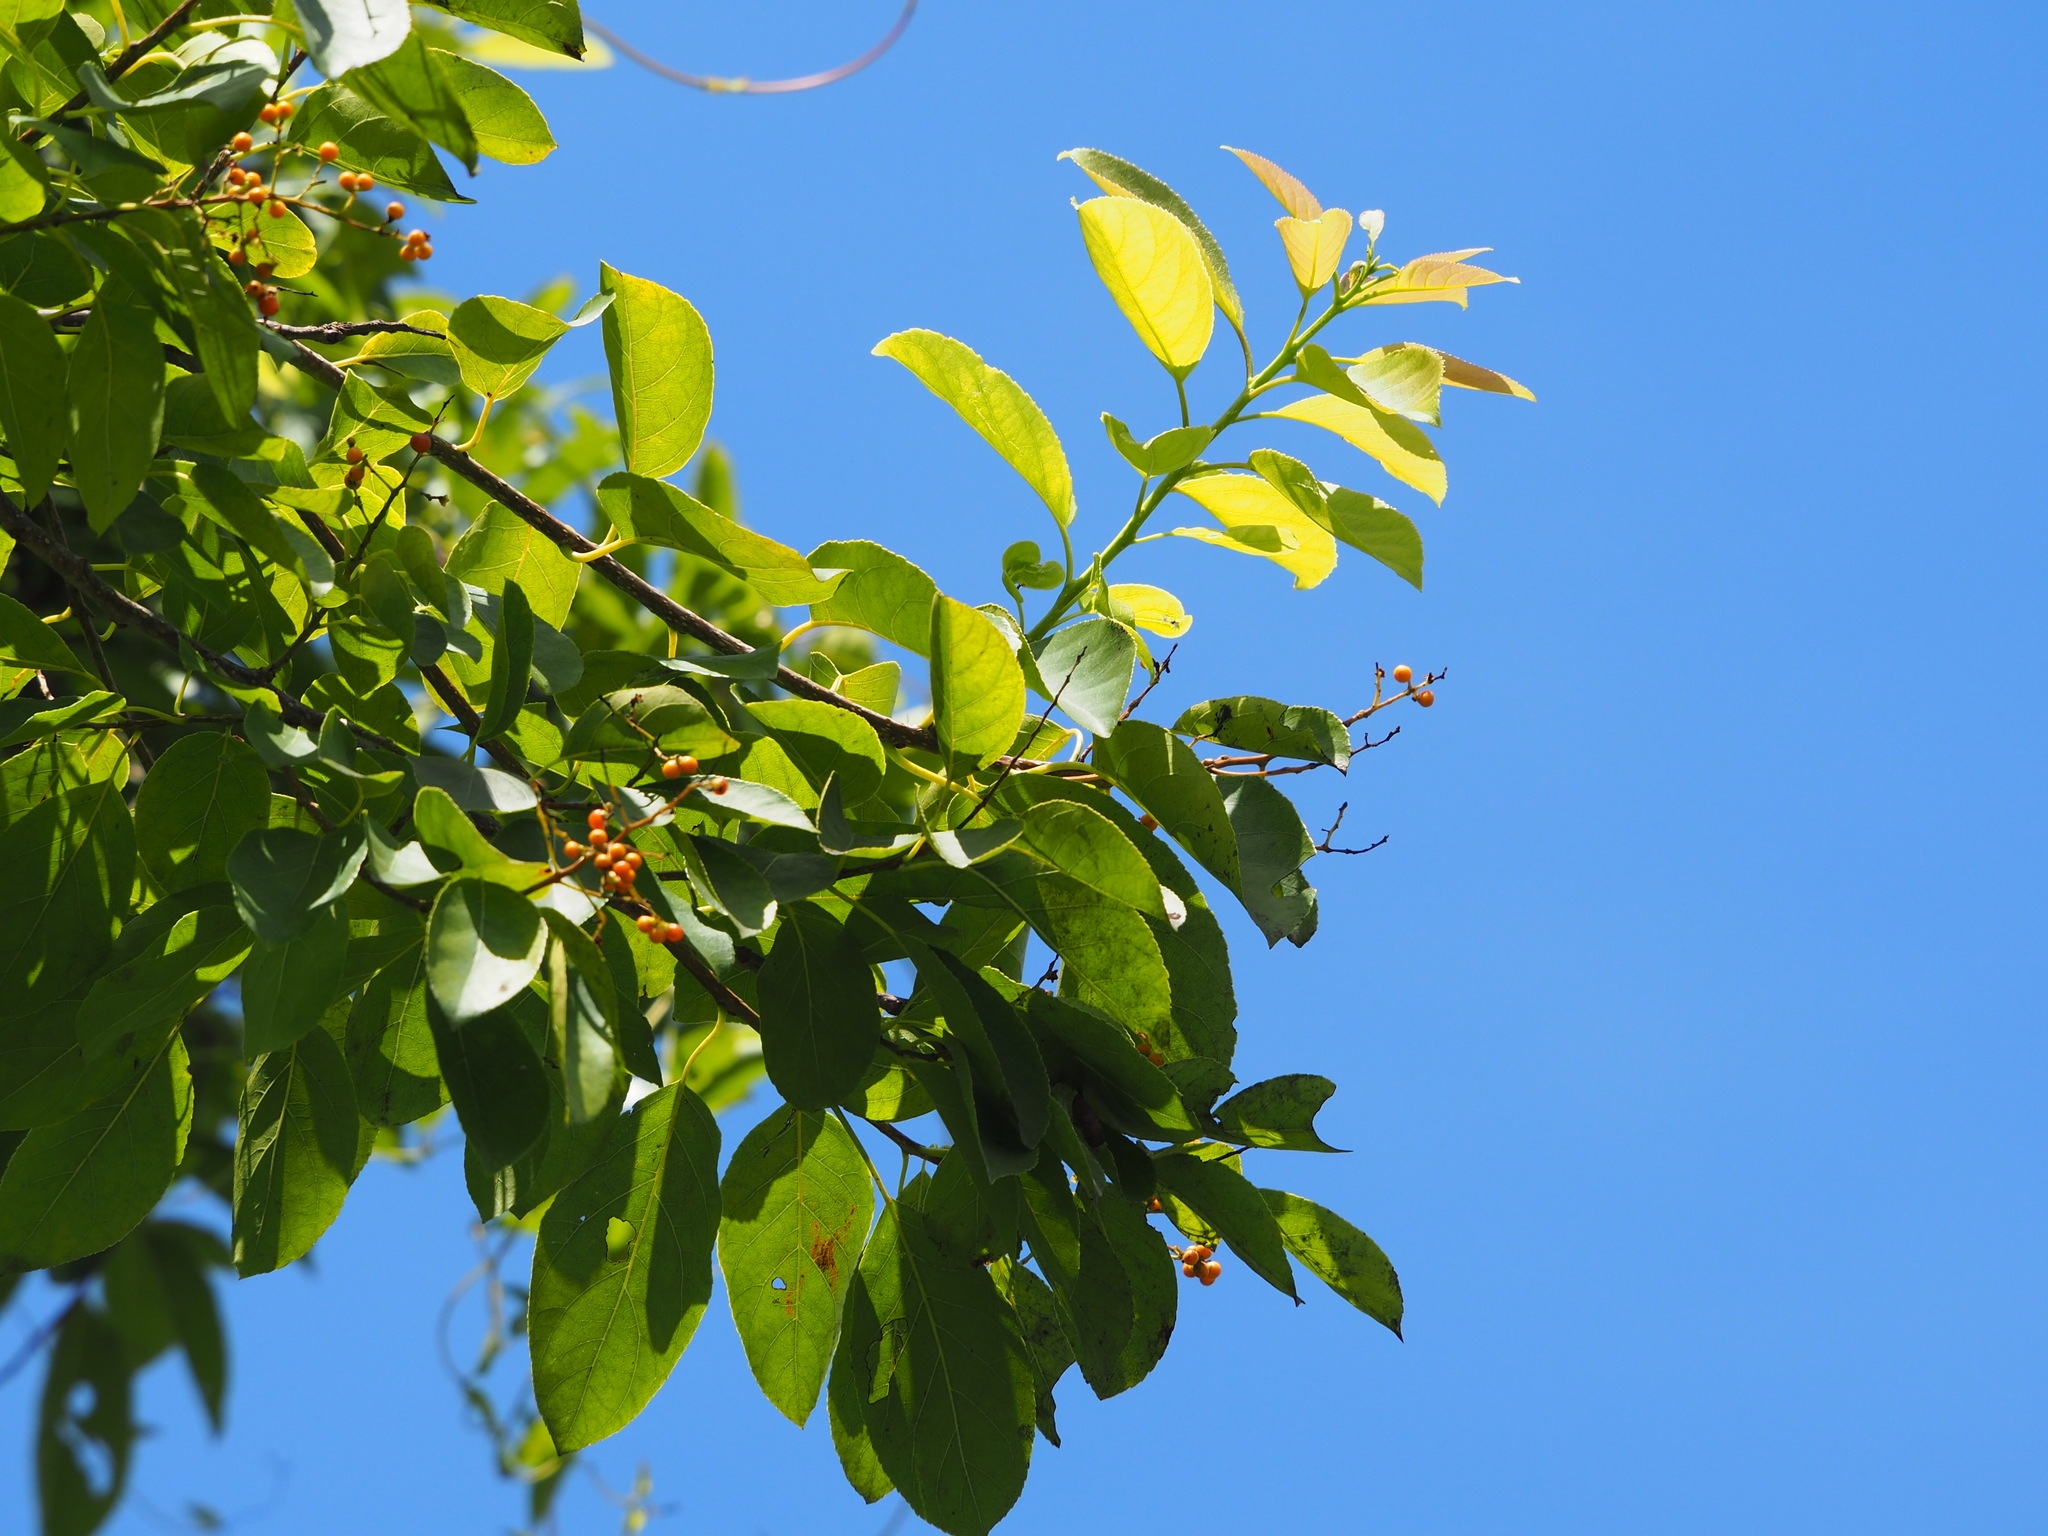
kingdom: Plantae
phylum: Tracheophyta
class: Magnoliopsida
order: Boraginales
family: Ehretiaceae
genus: Ehretia
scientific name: Ehretia acuminata
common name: Kodo wood
